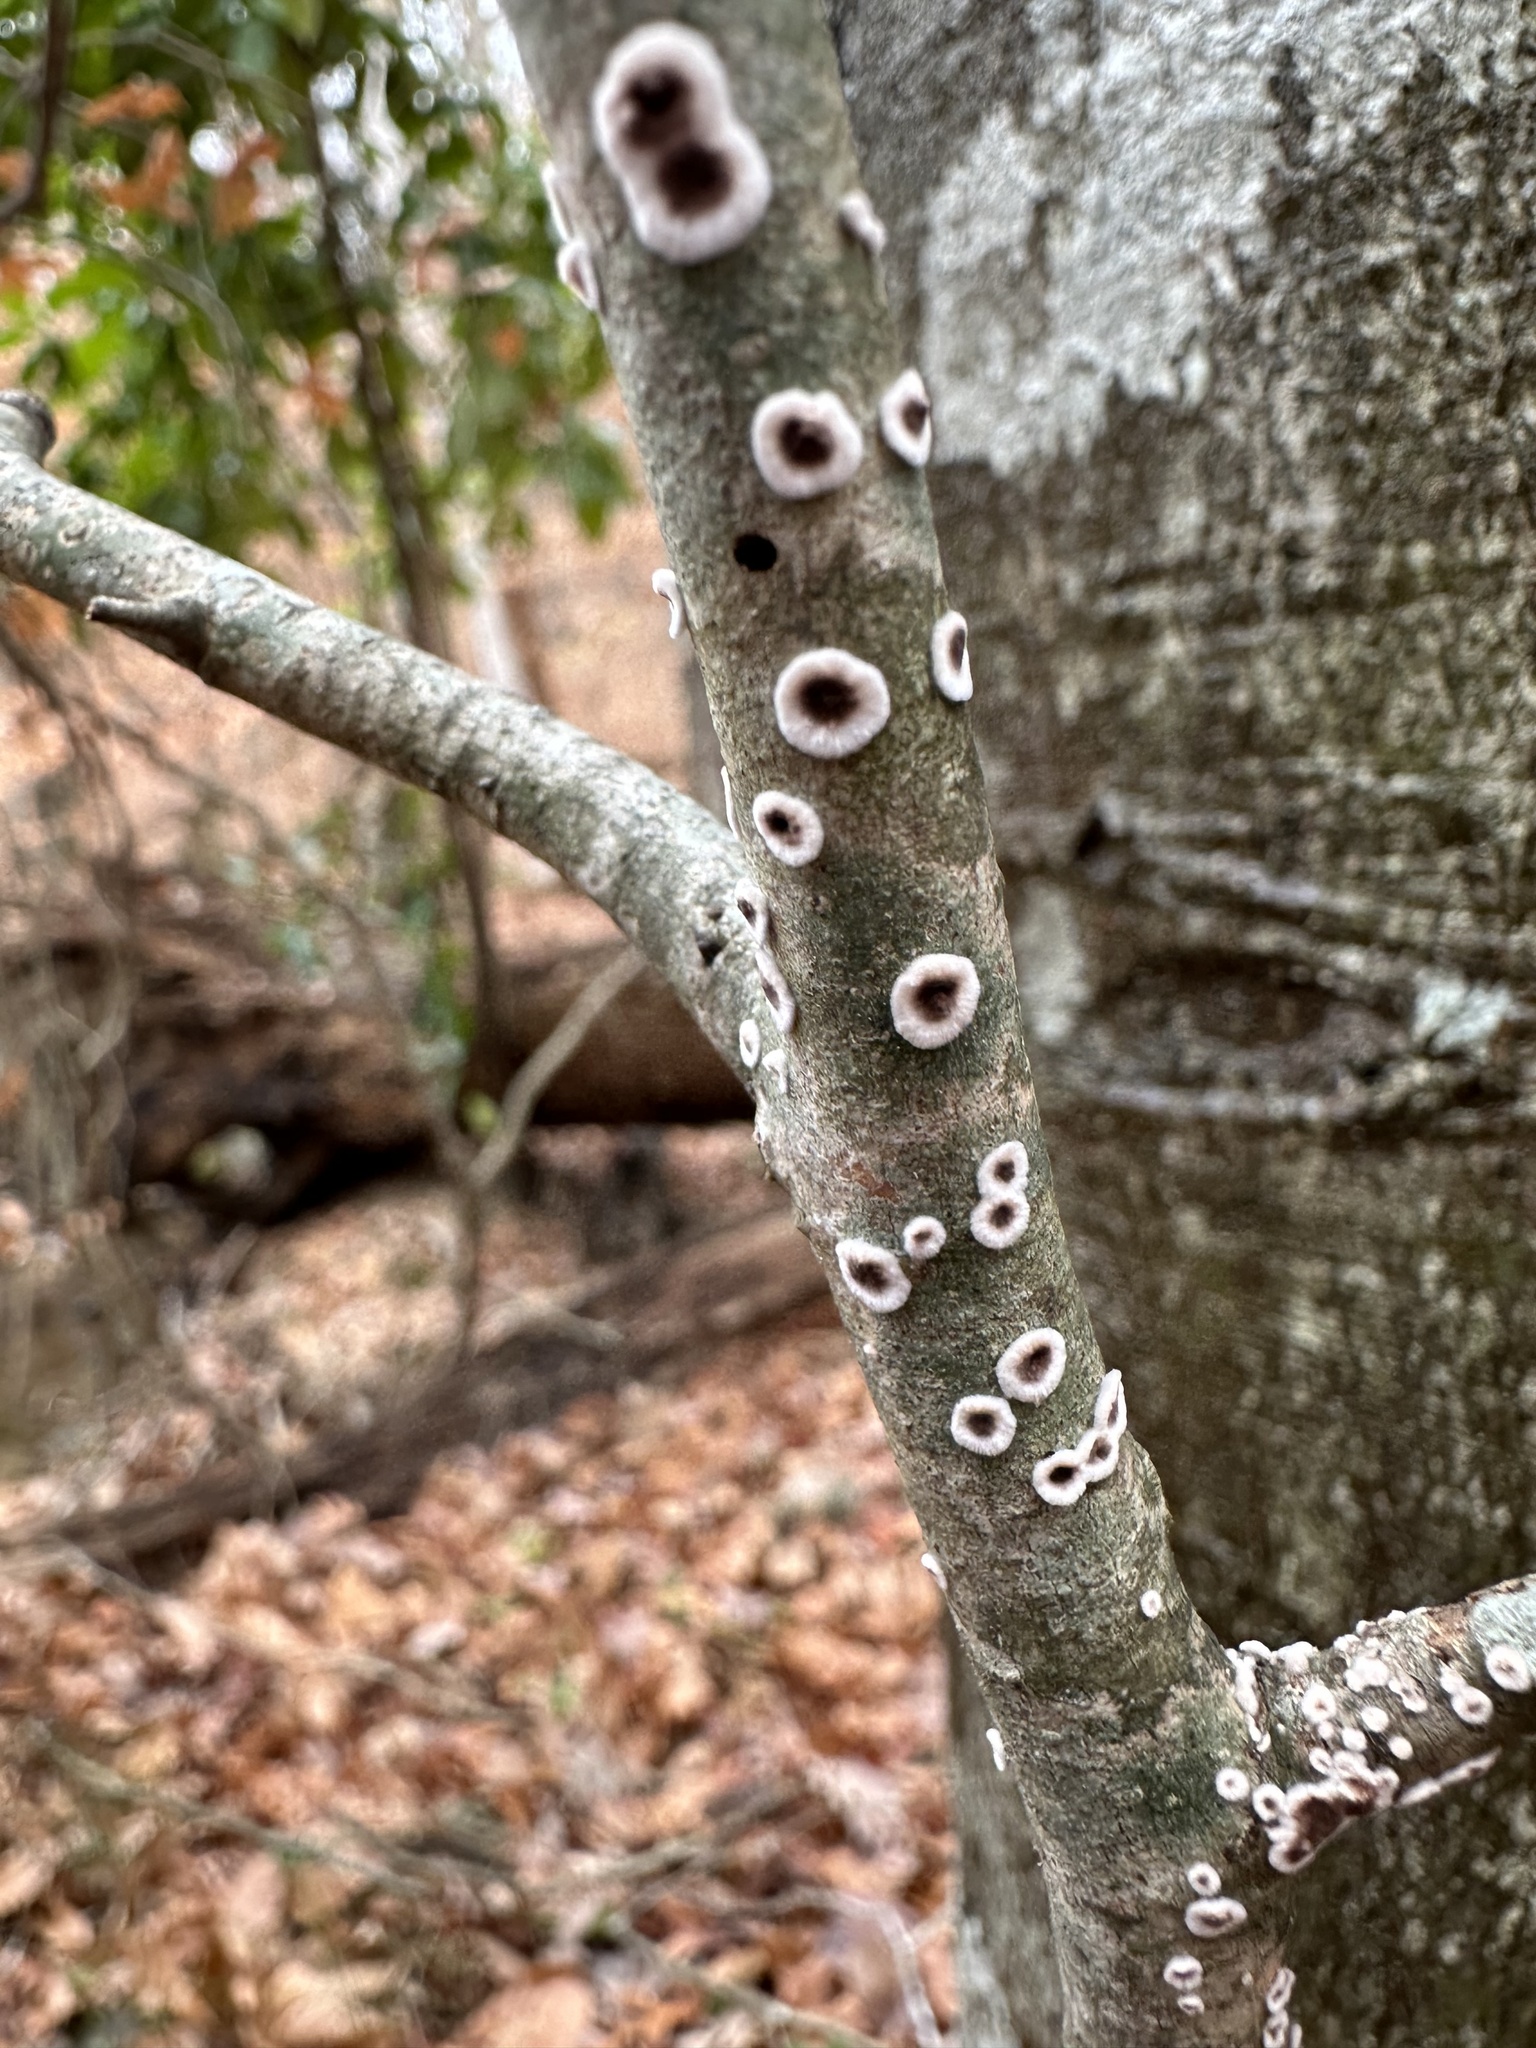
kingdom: Fungi
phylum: Basidiomycota
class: Agaricomycetes
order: Russulales
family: Peniophoraceae
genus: Peniophora
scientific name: Peniophora albobadia
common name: Giraffe spots
